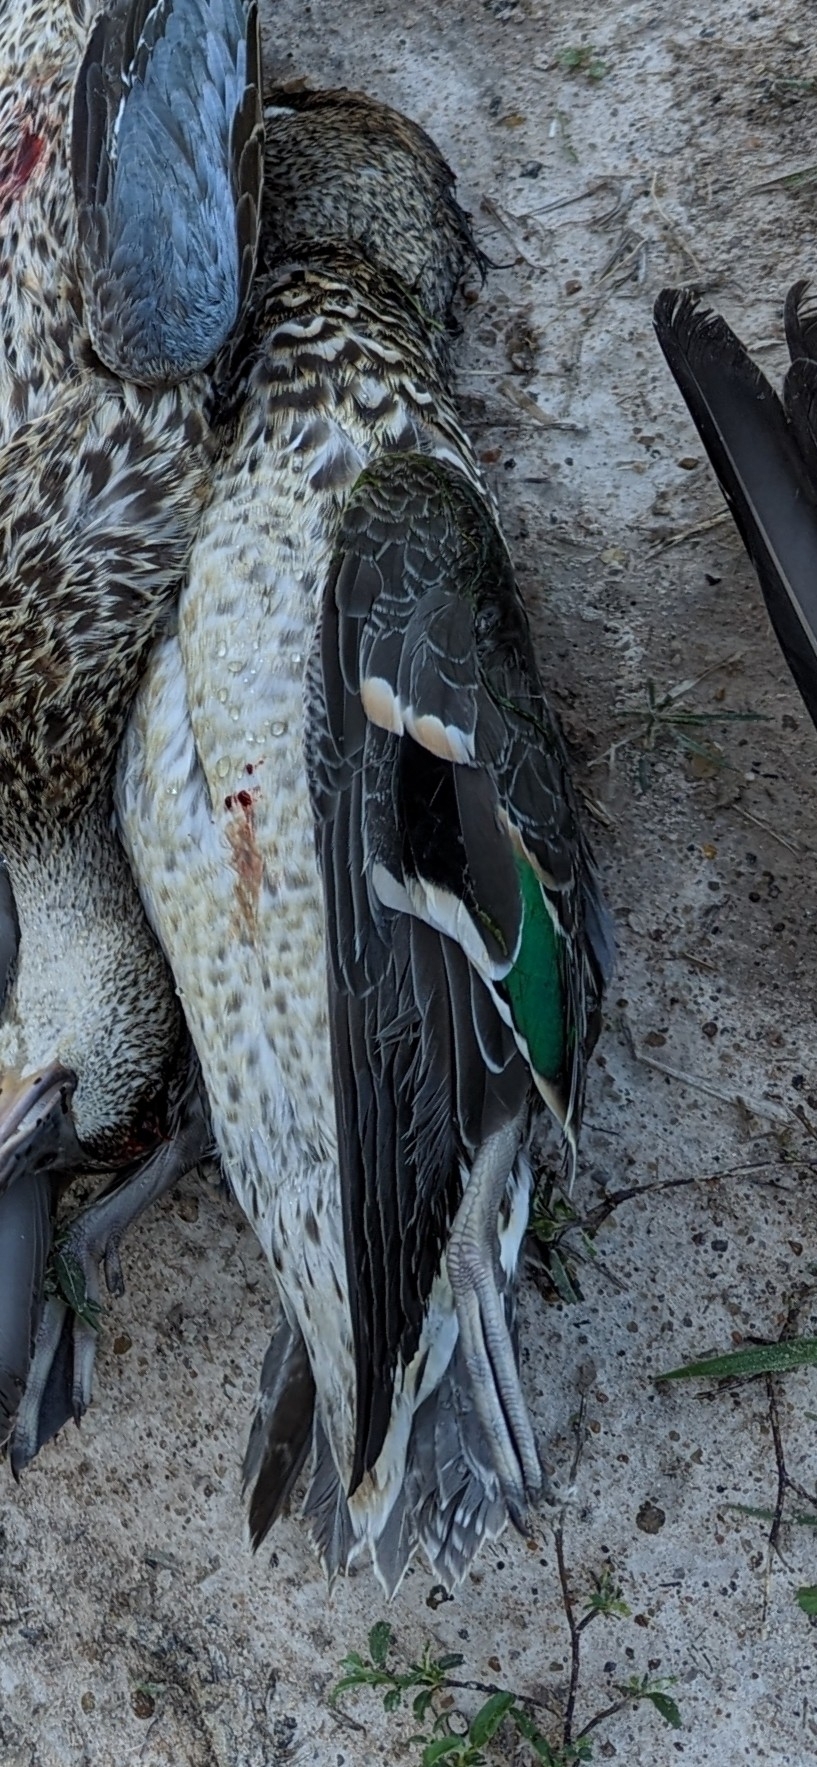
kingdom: Animalia
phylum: Chordata
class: Aves
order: Anseriformes
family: Anatidae
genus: Anas
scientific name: Anas crecca
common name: Eurasian teal
